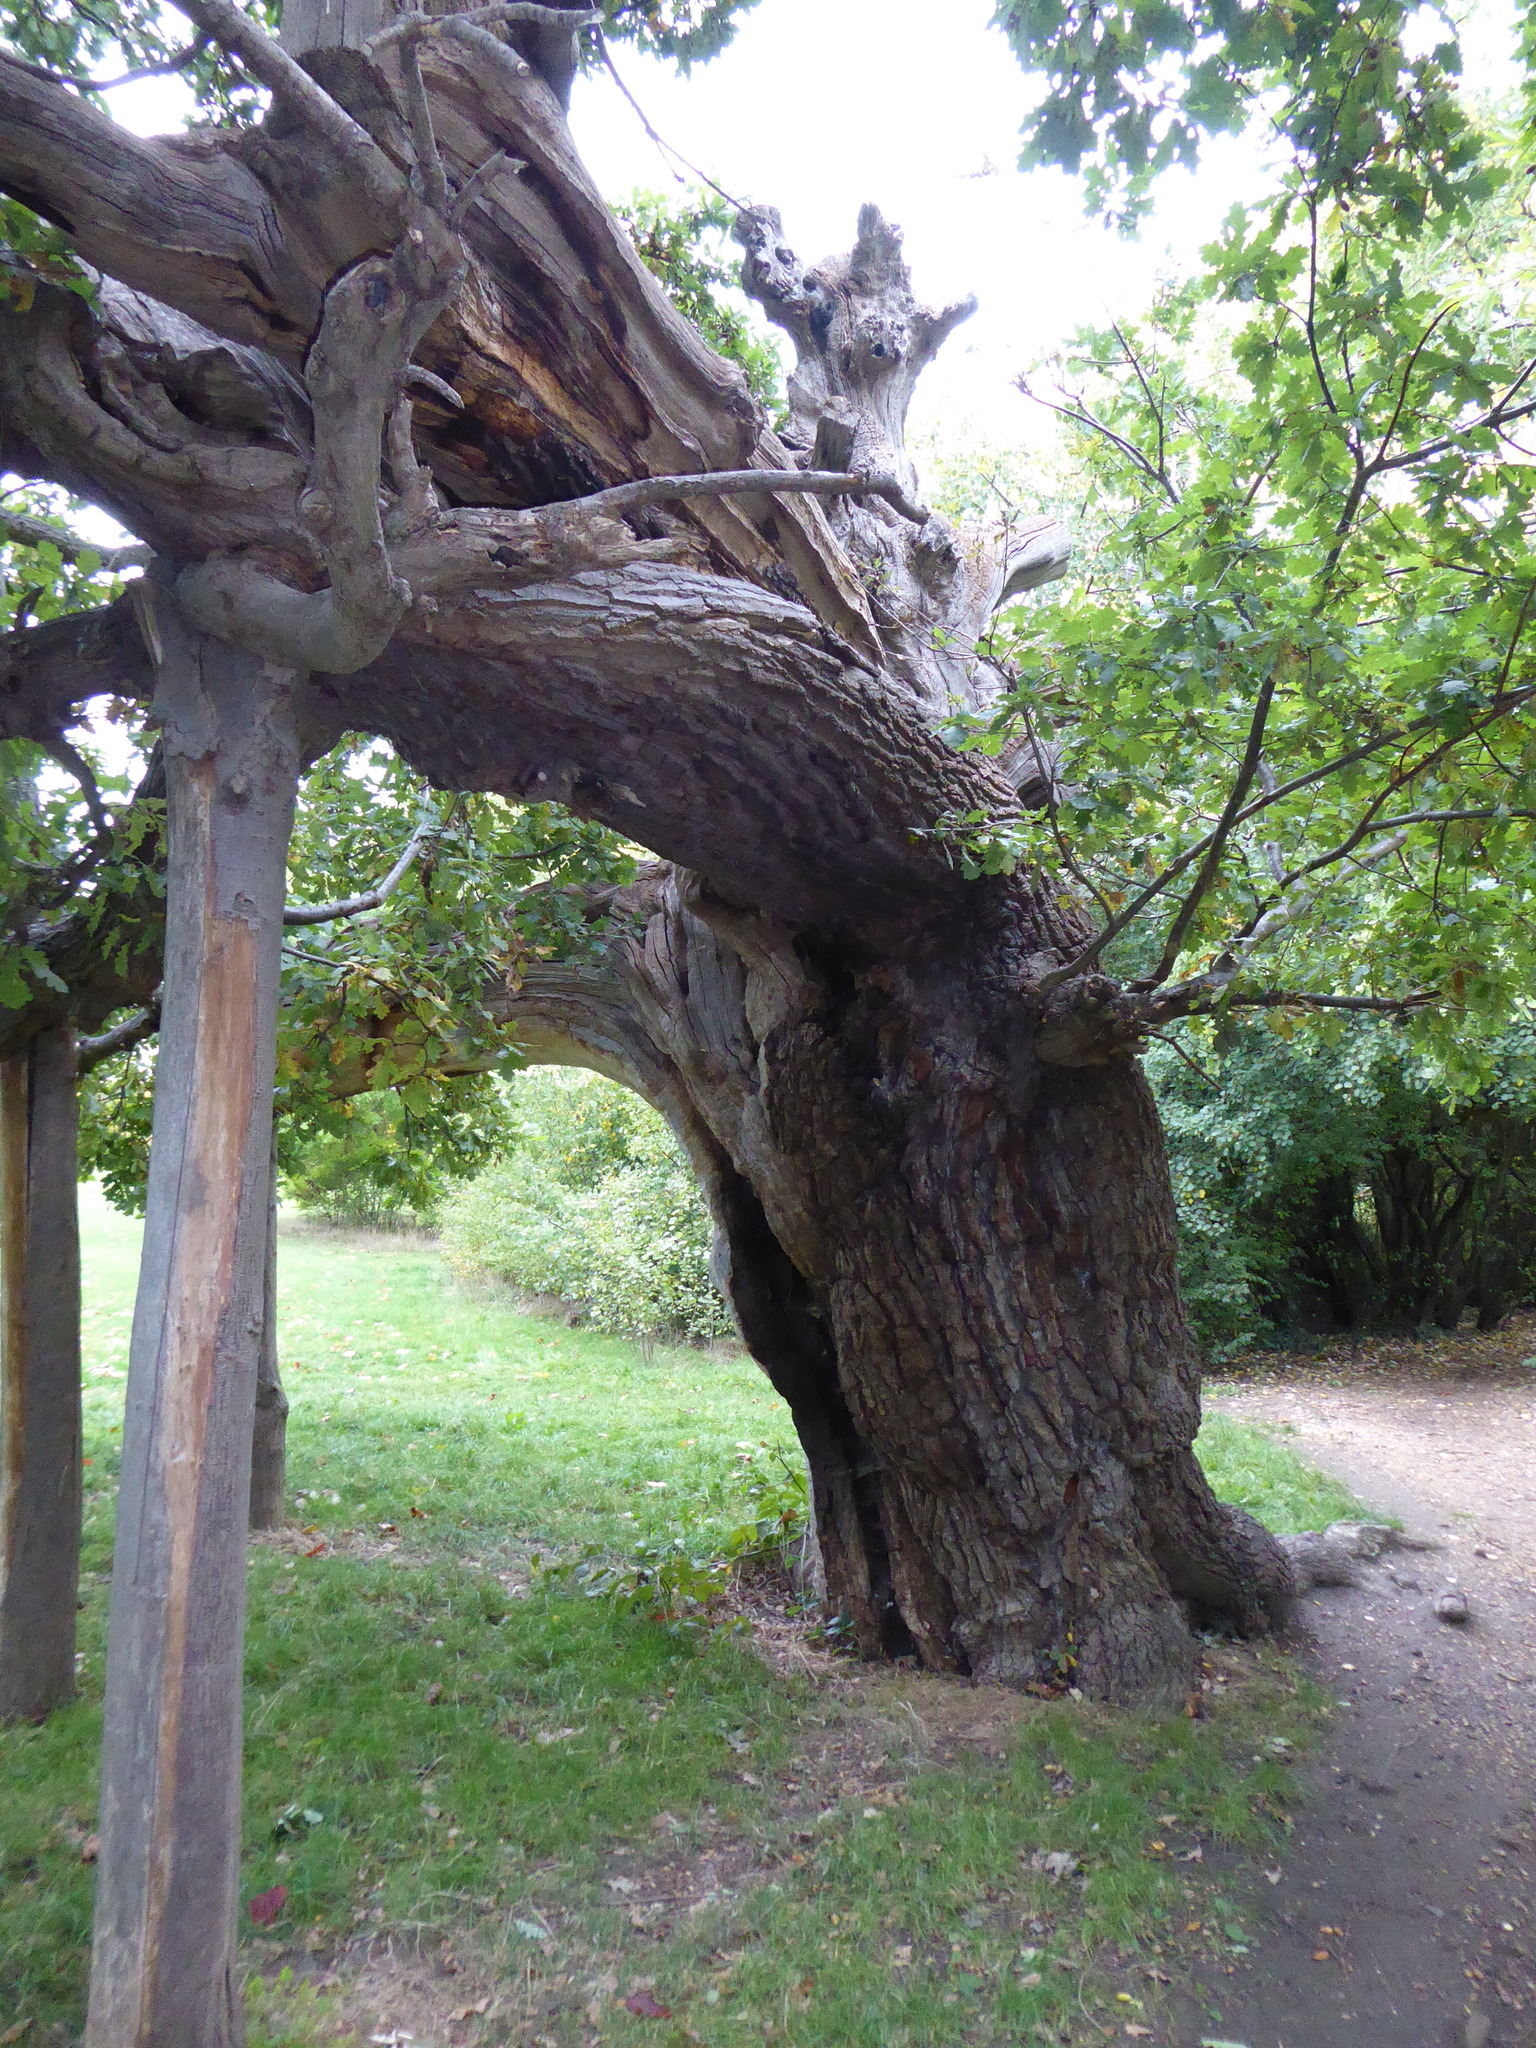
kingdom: Plantae
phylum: Tracheophyta
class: Magnoliopsida
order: Fagales
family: Fagaceae
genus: Quercus
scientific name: Quercus robur
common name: Pedunculate oak
